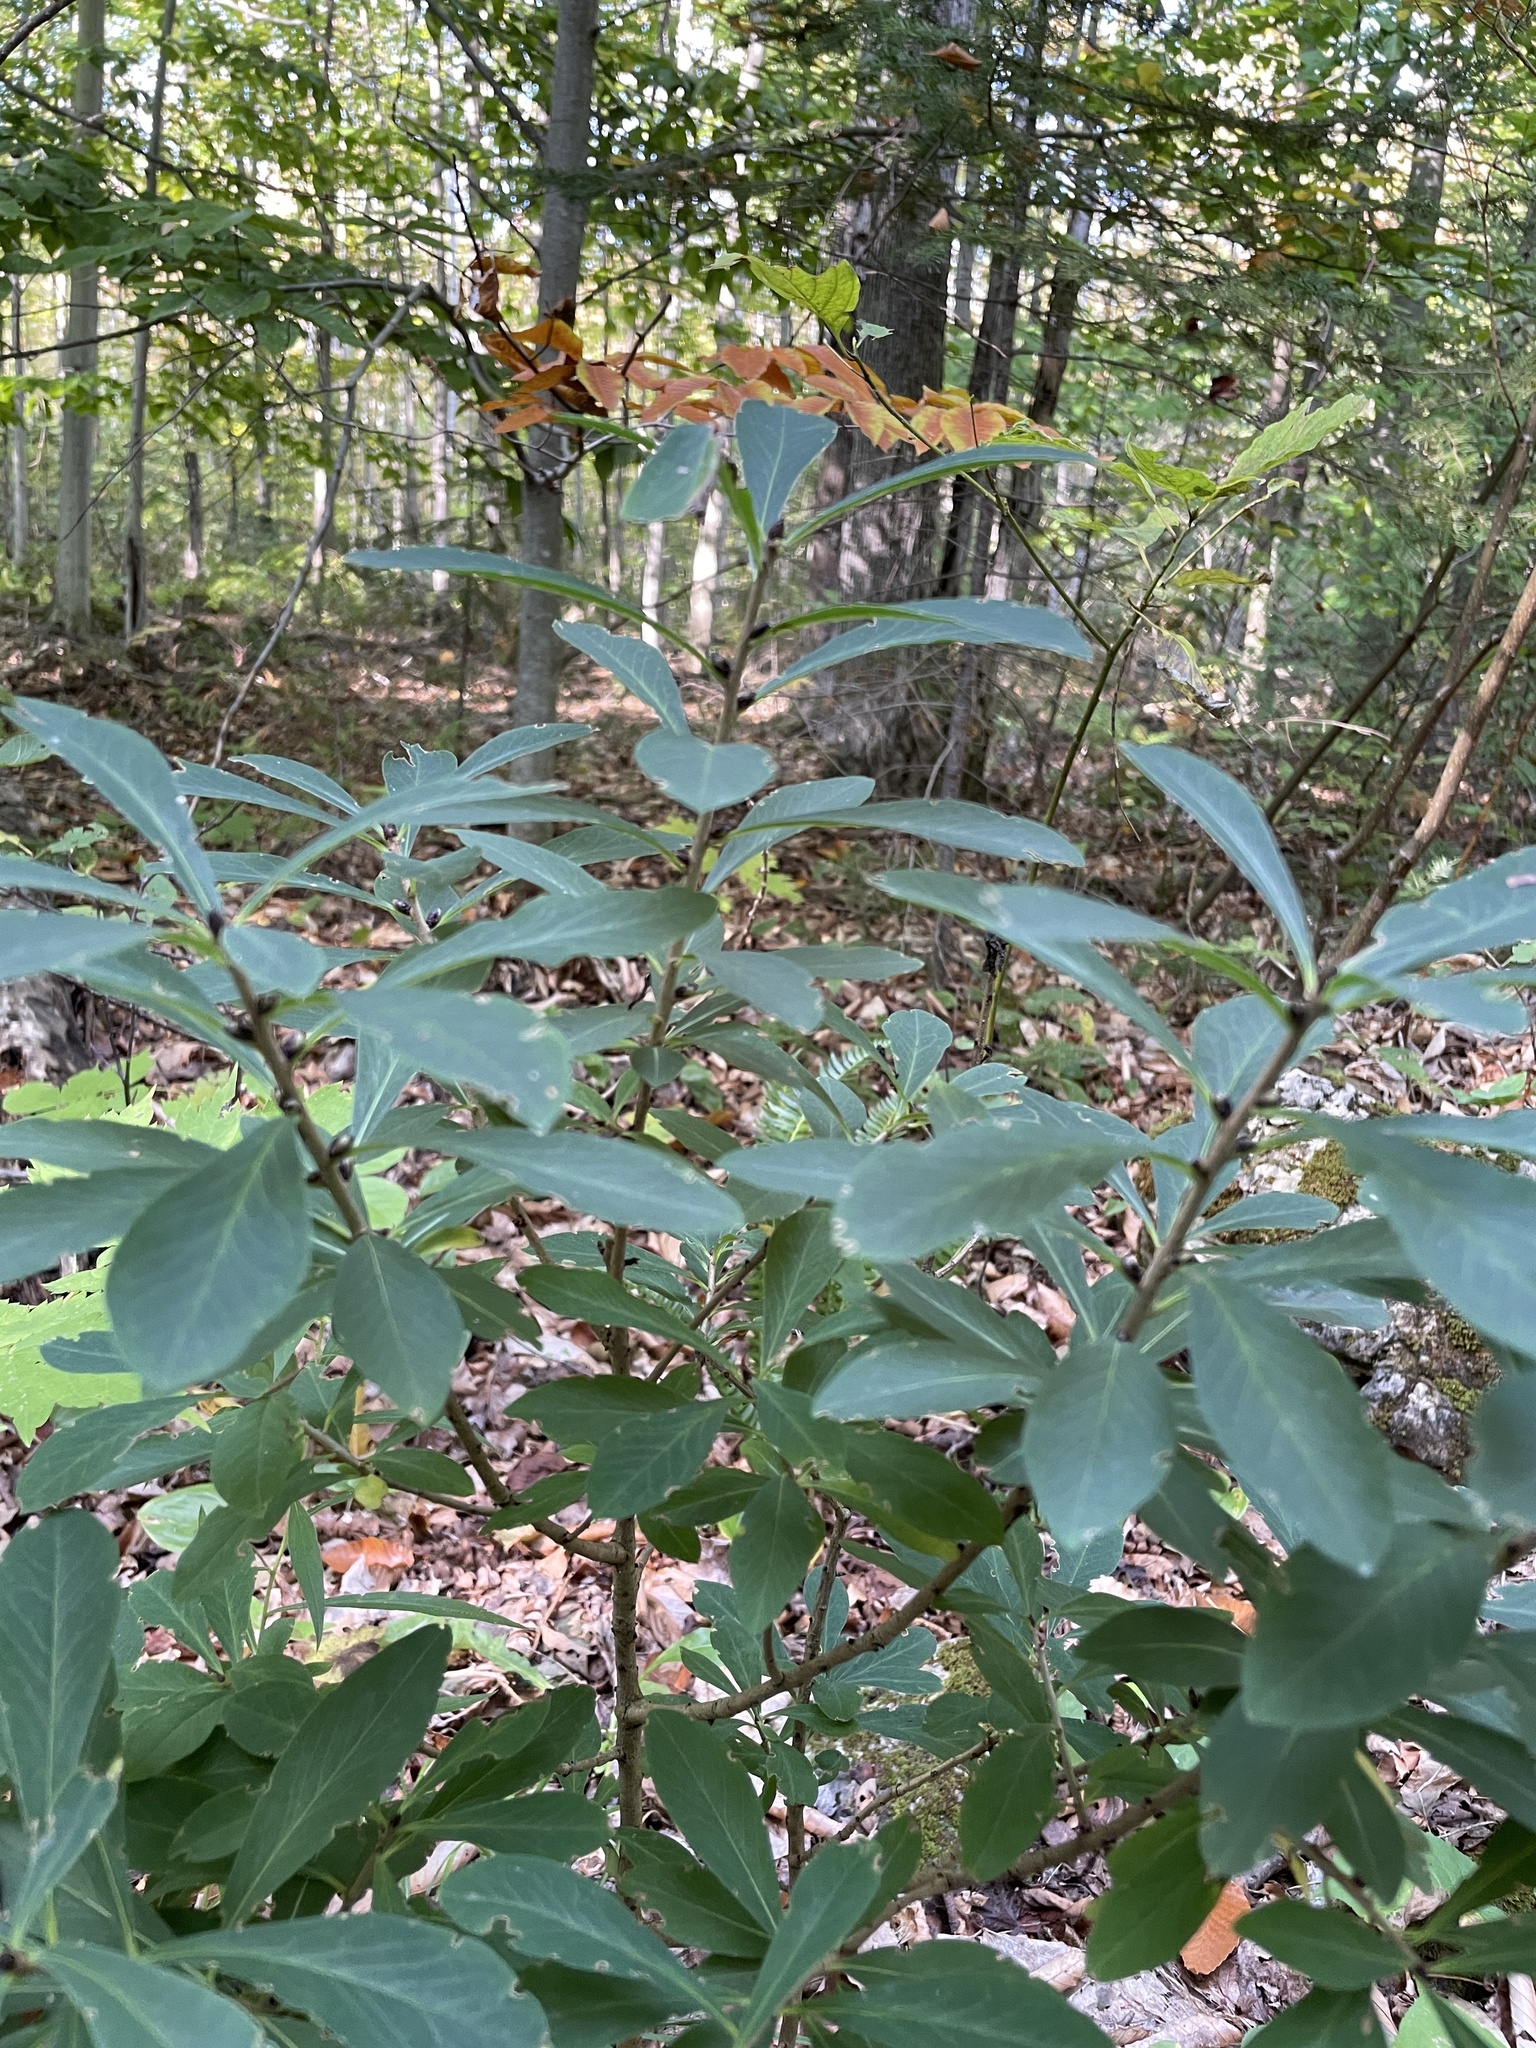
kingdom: Plantae
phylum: Tracheophyta
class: Magnoliopsida
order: Malvales
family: Thymelaeaceae
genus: Daphne
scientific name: Daphne mezereum
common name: Mezereon
